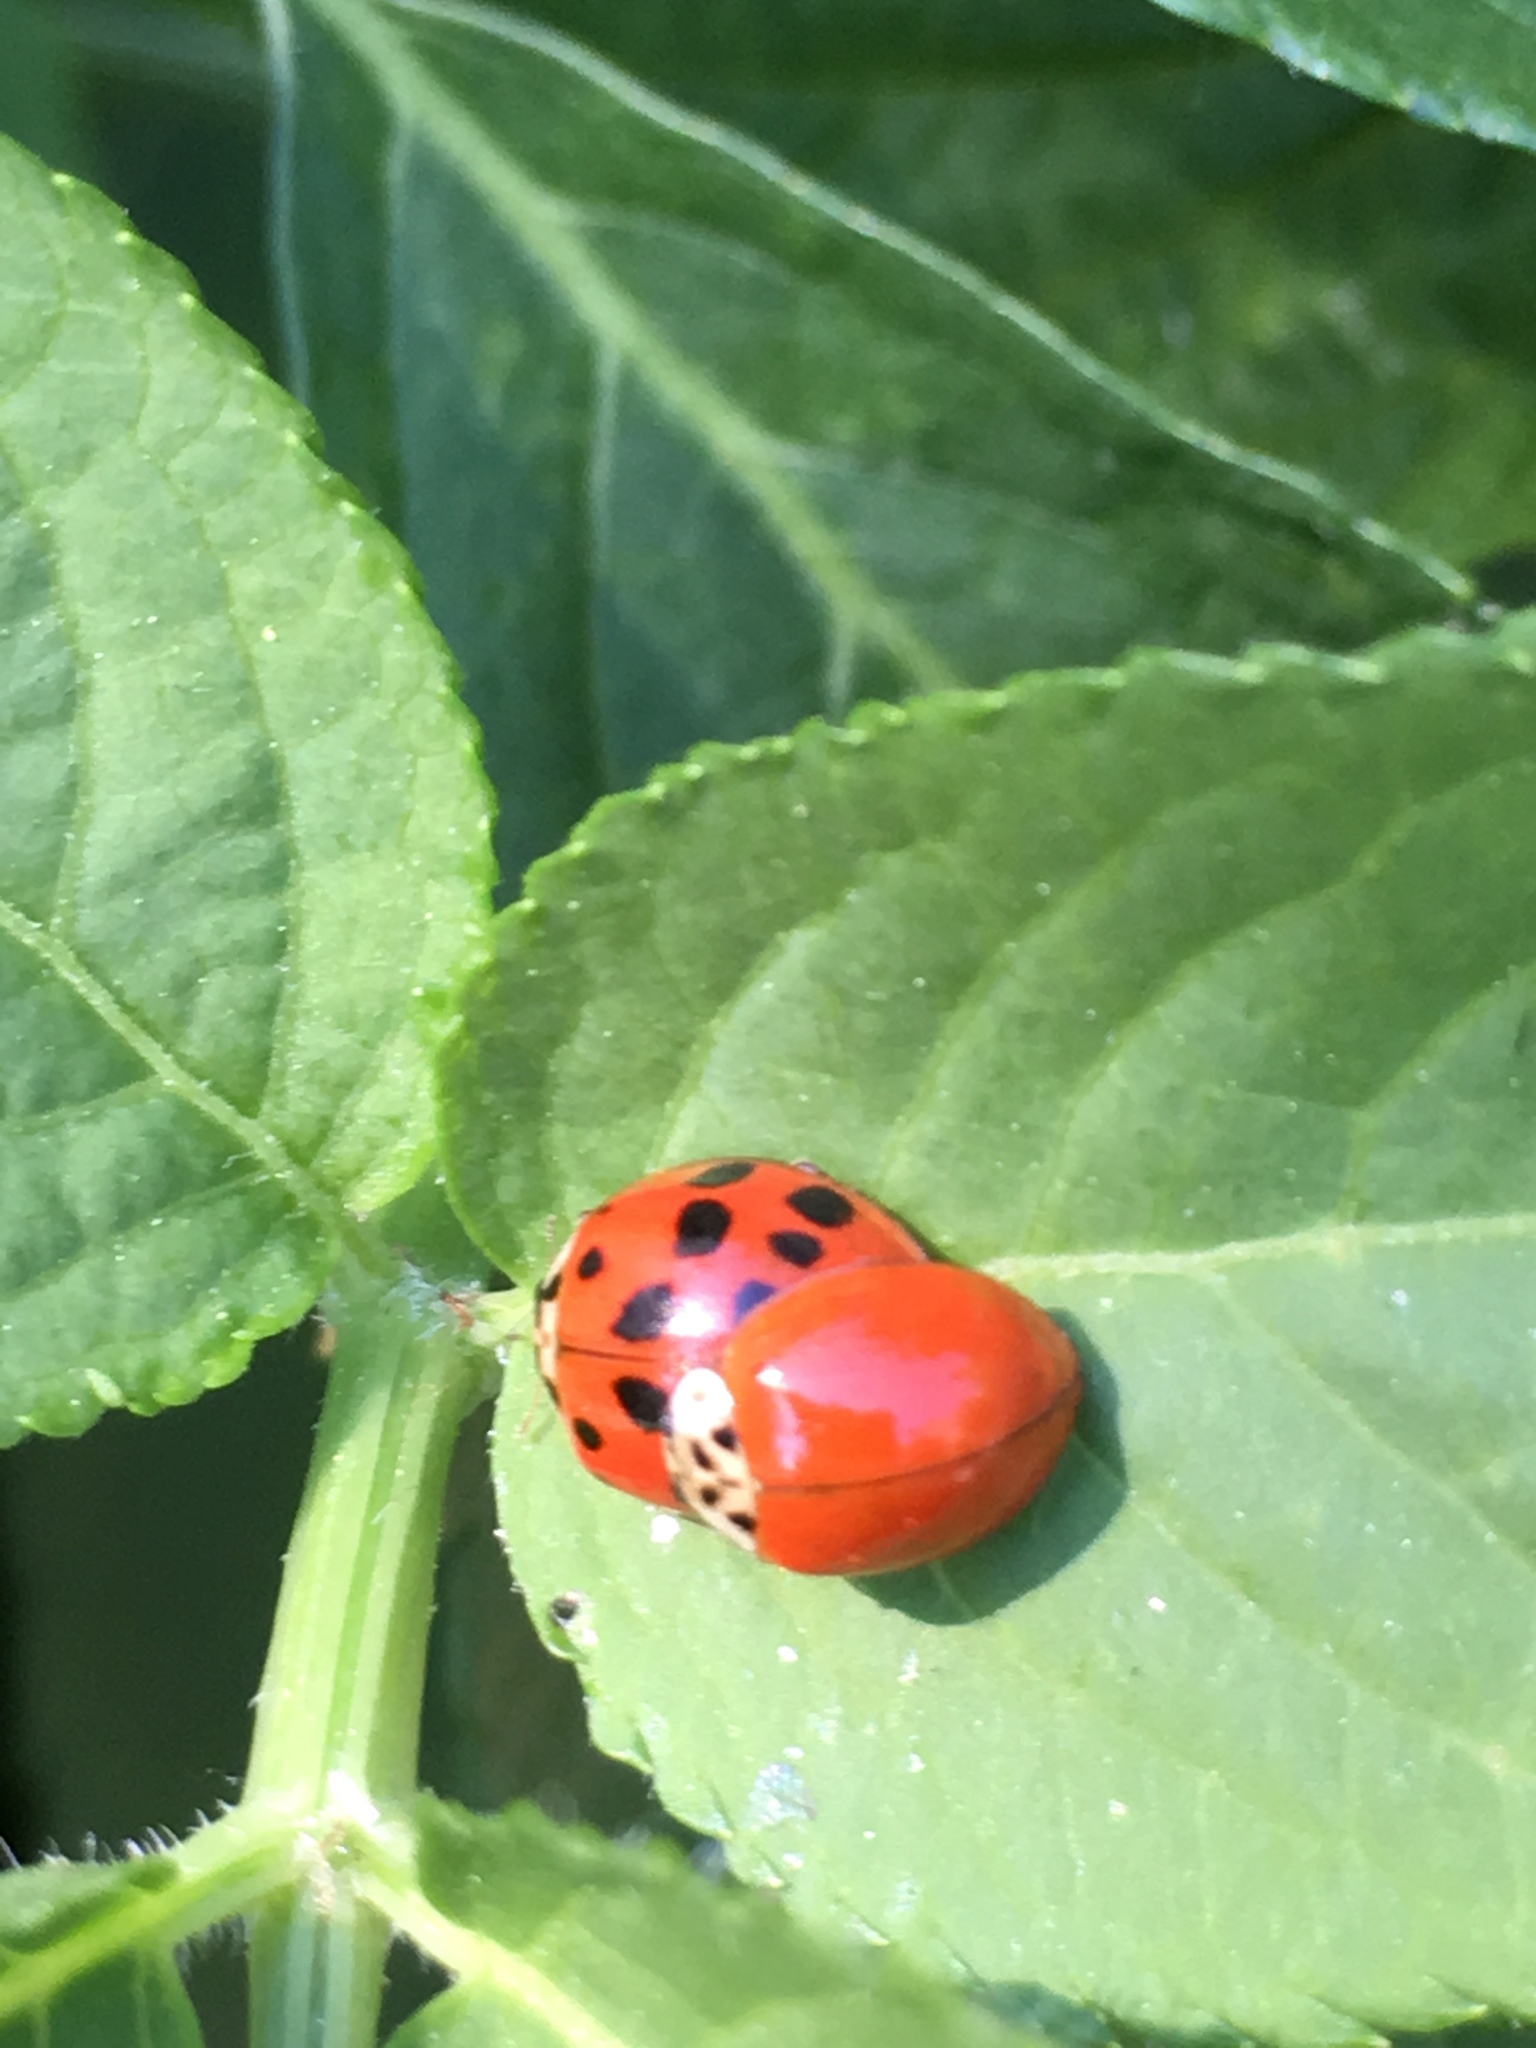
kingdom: Animalia
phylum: Arthropoda
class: Insecta
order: Coleoptera
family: Coccinellidae
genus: Harmonia
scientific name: Harmonia axyridis
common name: Harlequin ladybird
